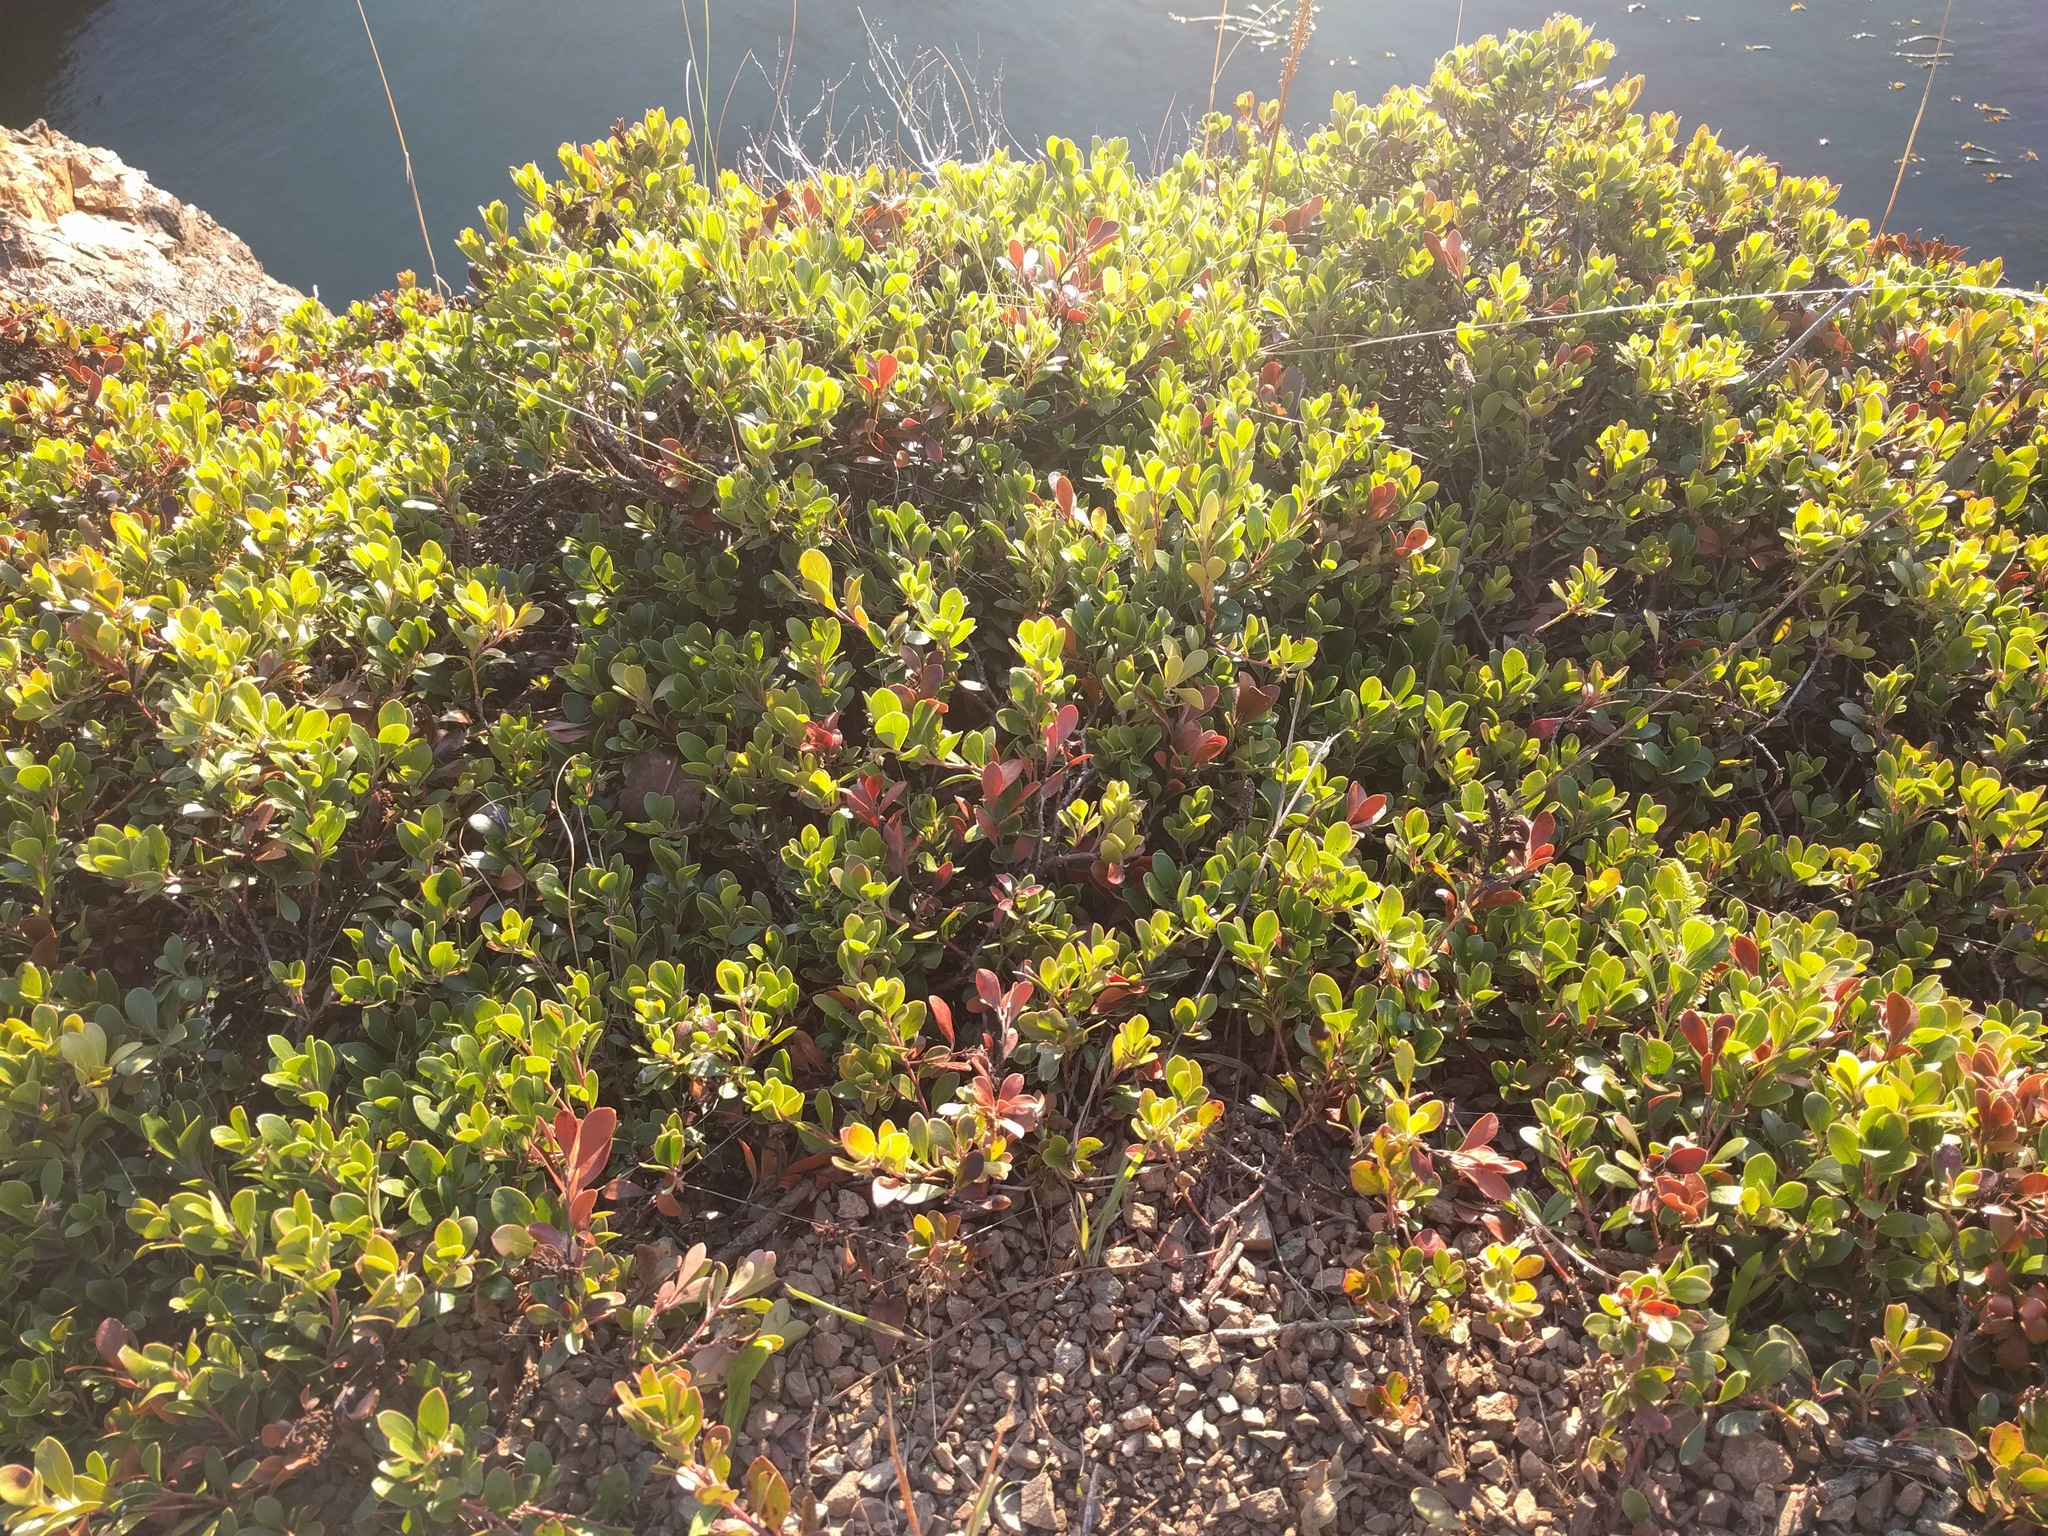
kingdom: Plantae
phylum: Tracheophyta
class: Magnoliopsida
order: Ericales
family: Ericaceae
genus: Arctostaphylos
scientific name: Arctostaphylos uva-ursi
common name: Bearberry
